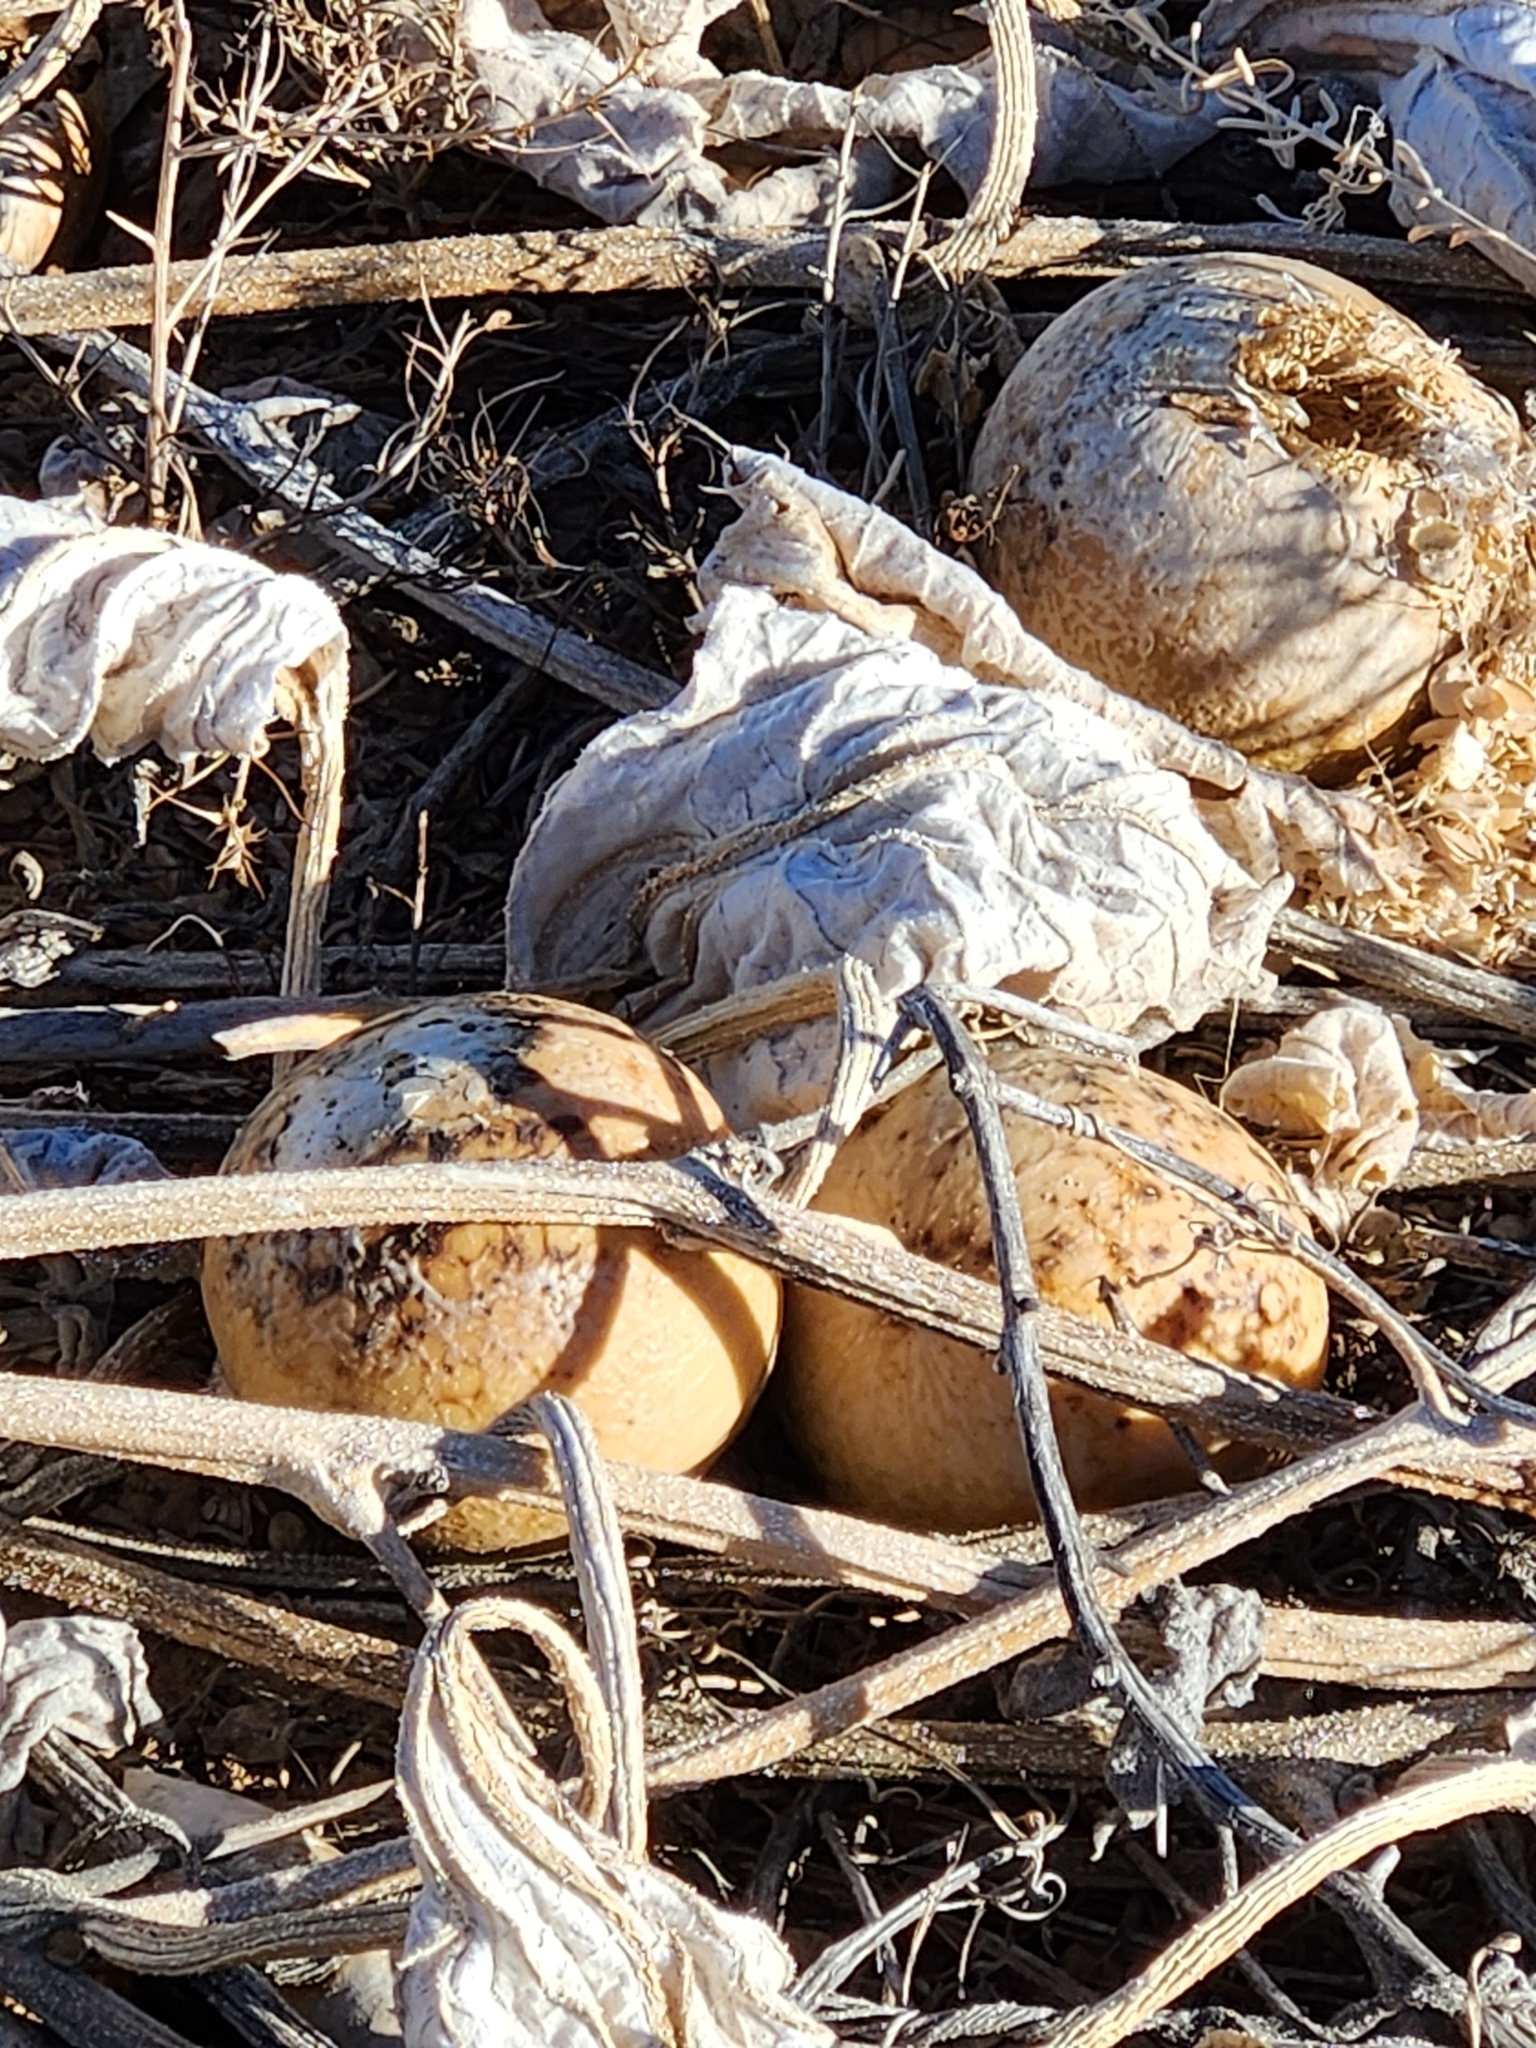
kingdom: Plantae
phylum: Tracheophyta
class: Magnoliopsida
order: Cucurbitales
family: Cucurbitaceae
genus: Cucurbita
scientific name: Cucurbita foetidissima
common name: Buffalo gourd
